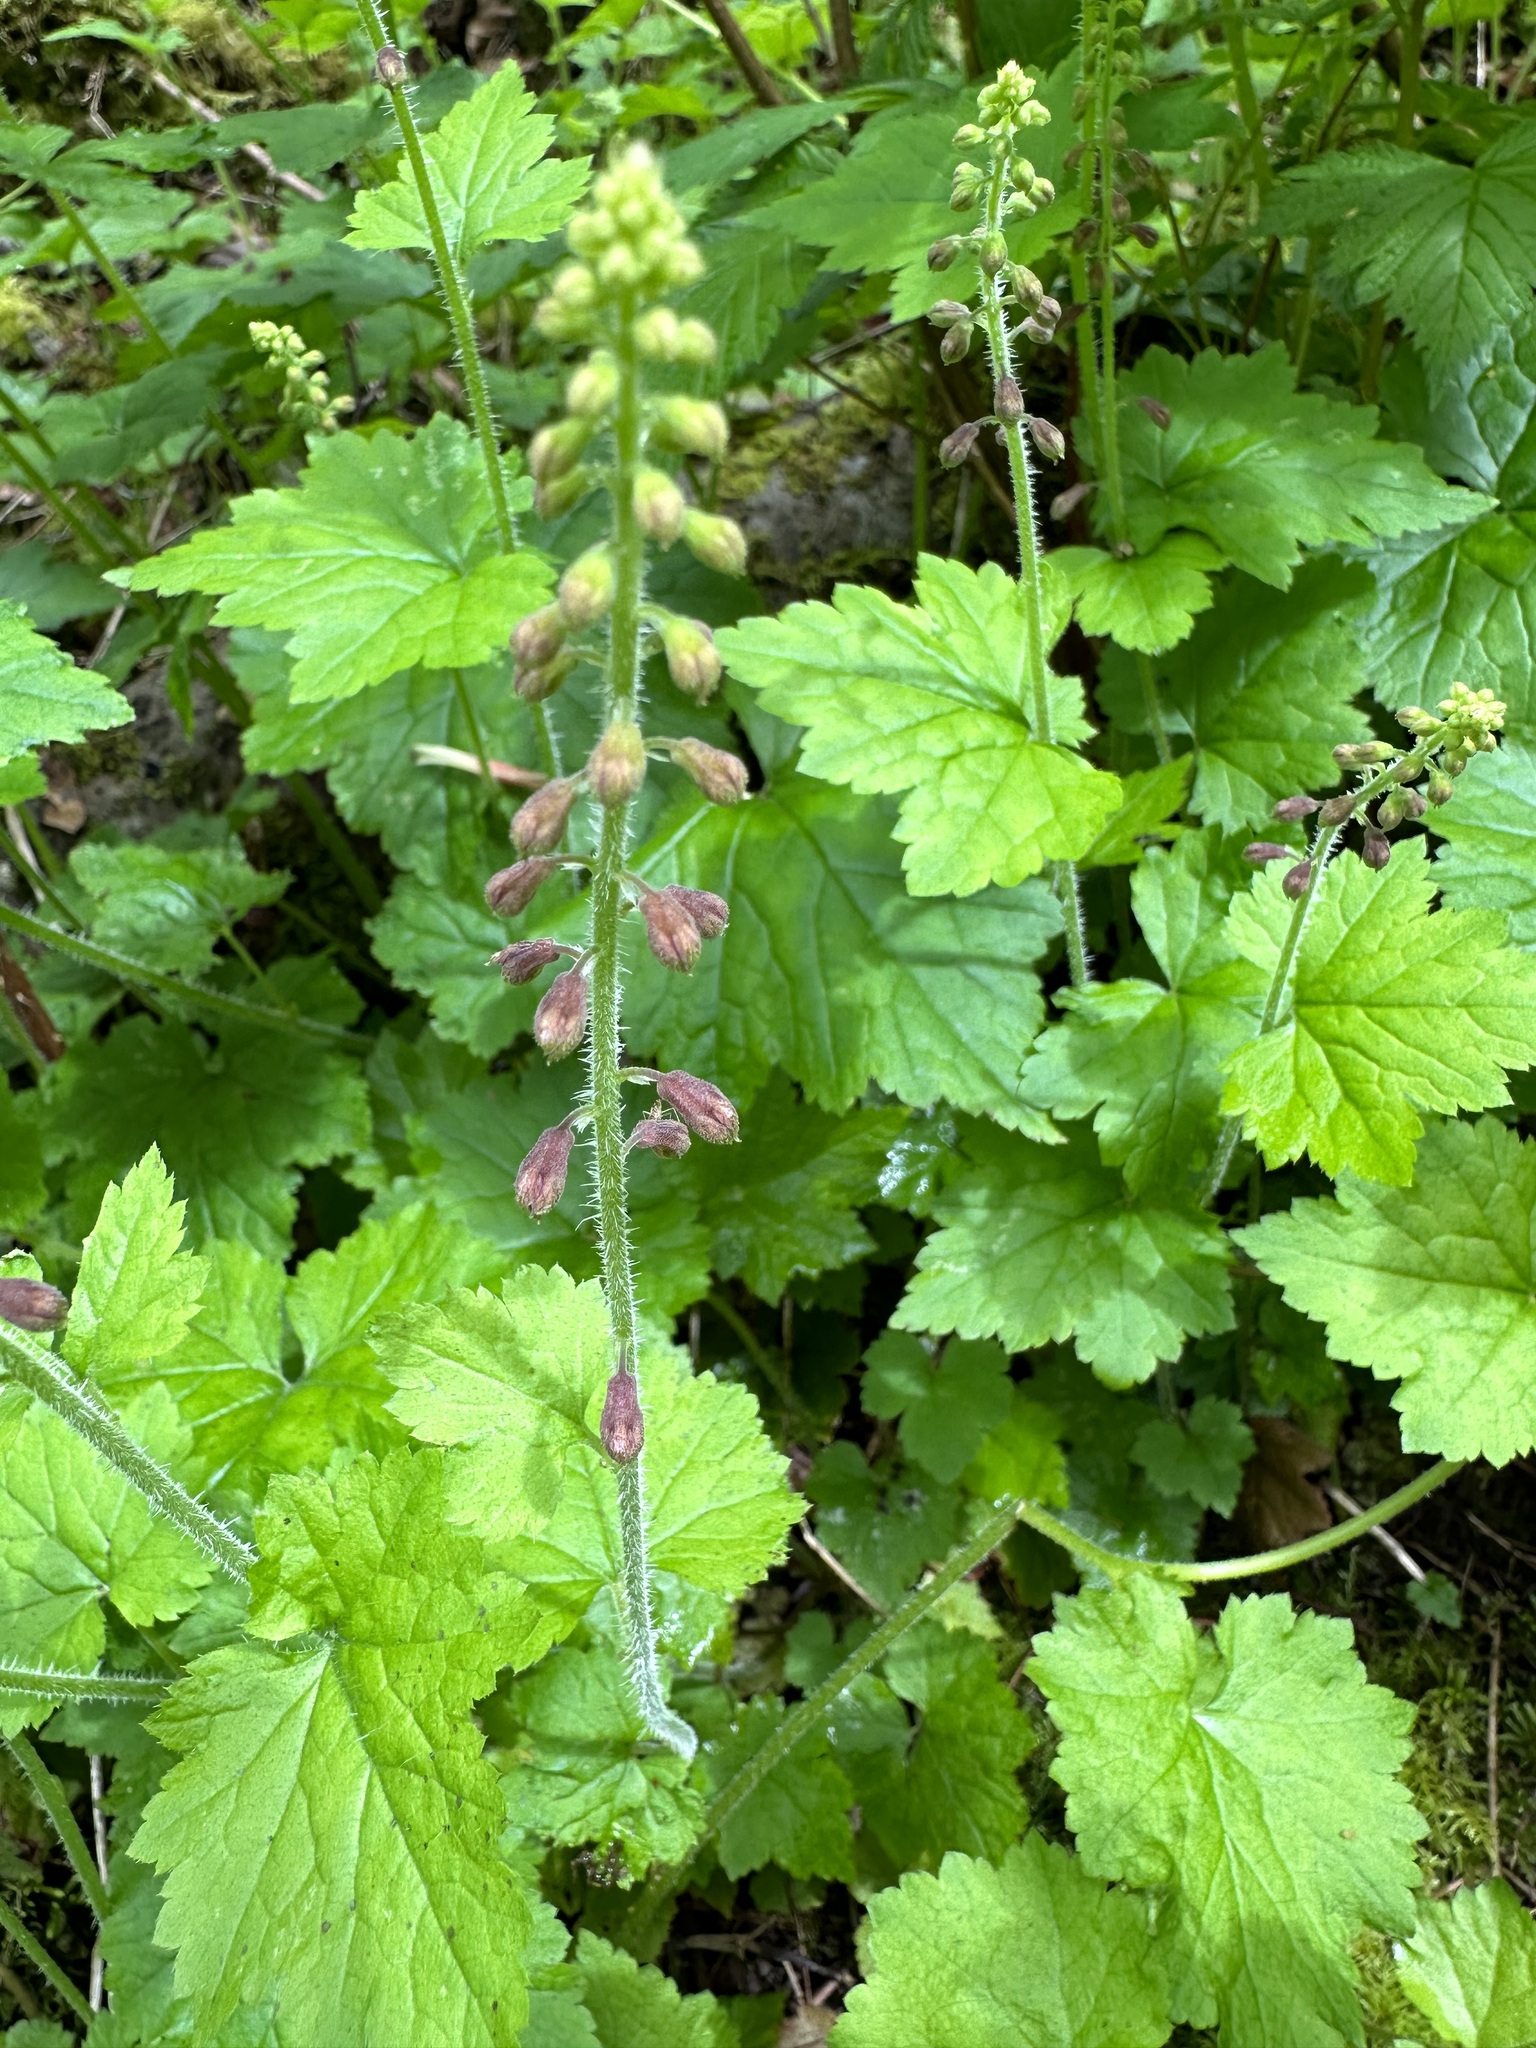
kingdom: Plantae
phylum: Tracheophyta
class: Magnoliopsida
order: Saxifragales
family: Saxifragaceae
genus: Tolmiea
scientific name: Tolmiea menziesii
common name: Pick-a-back-plant
